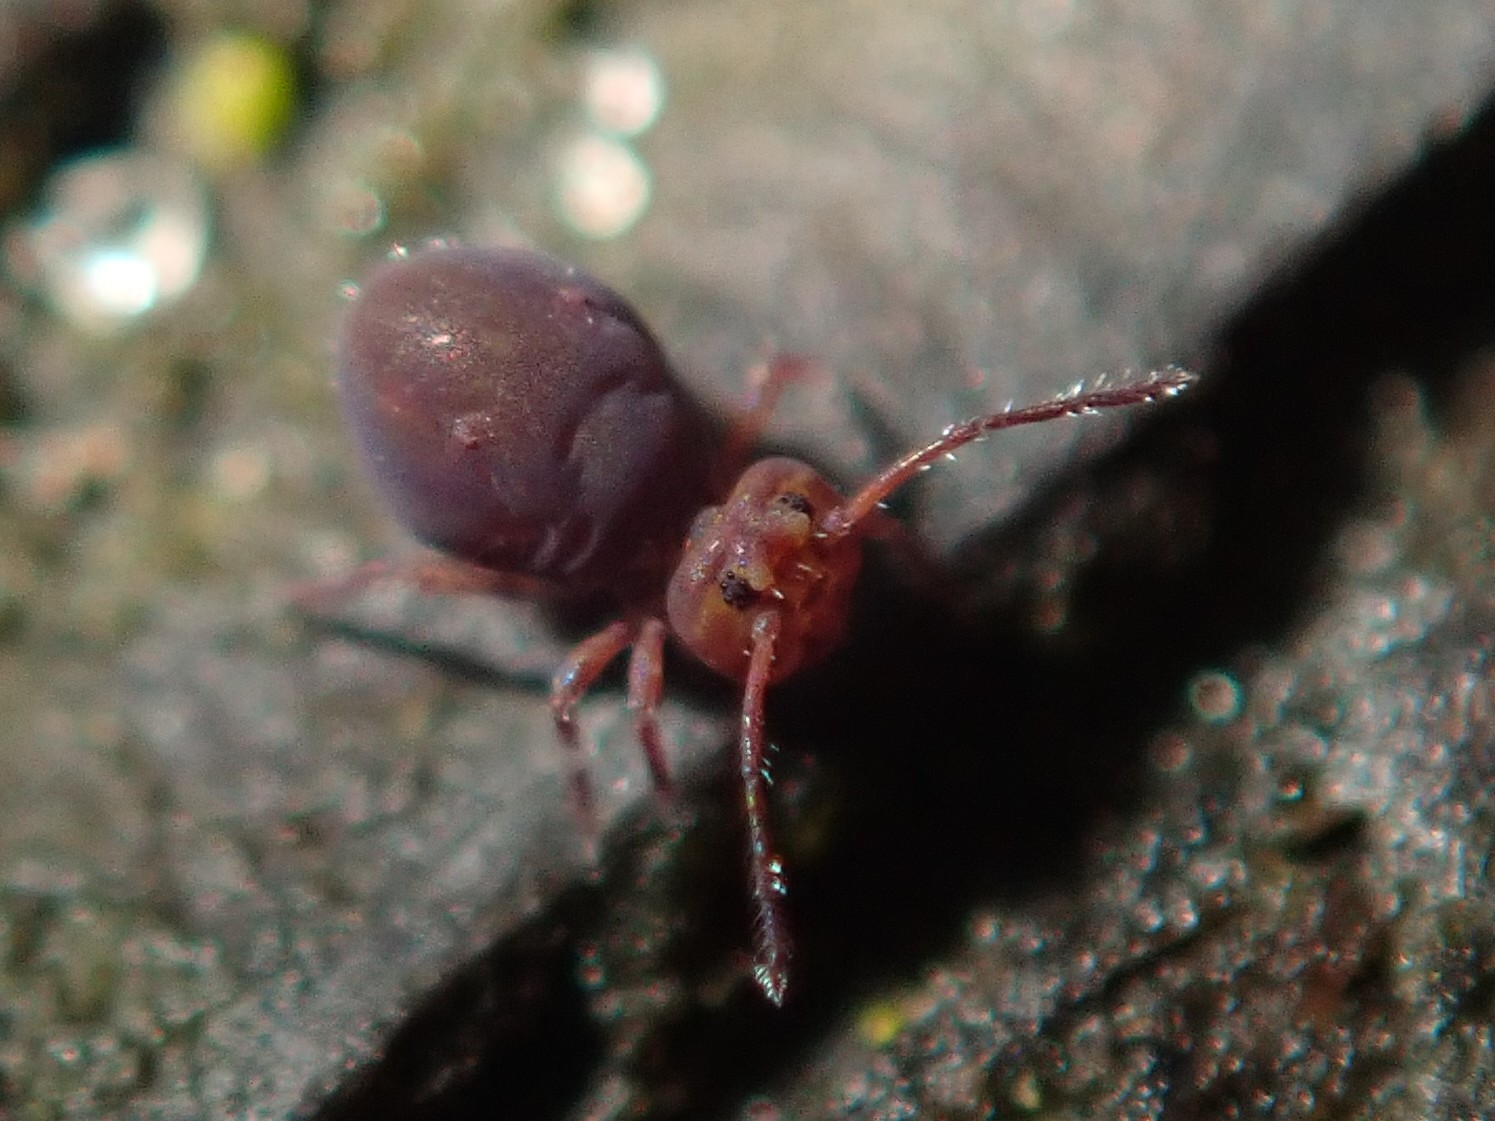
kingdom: Animalia
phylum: Arthropoda
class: Collembola
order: Symphypleona
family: Dicyrtomidae
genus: Dicyrtoma
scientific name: Dicyrtoma fusca
